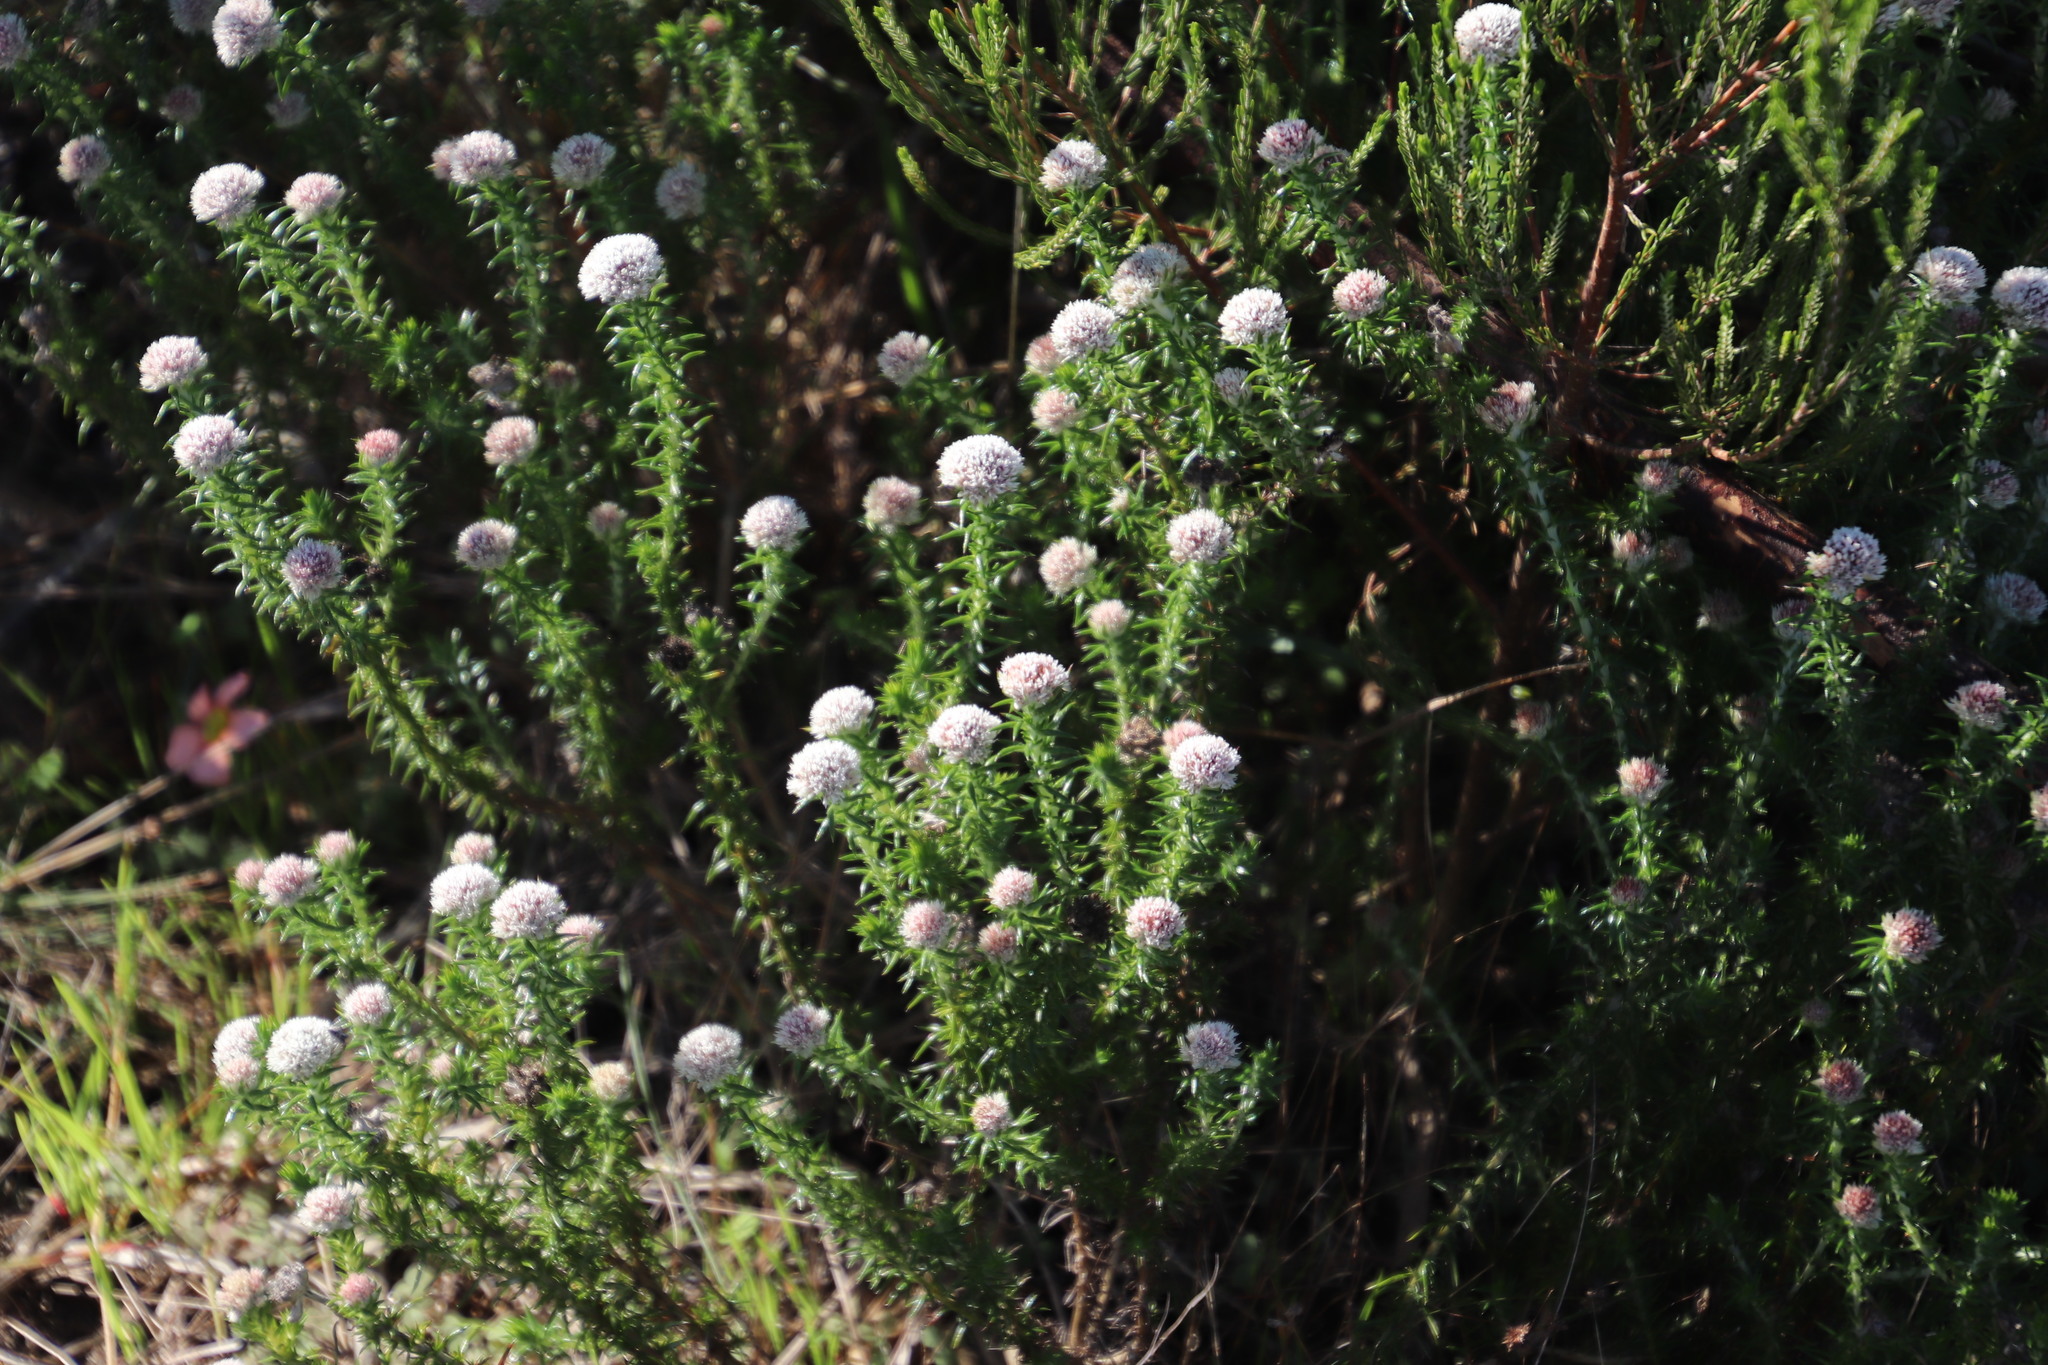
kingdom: Plantae
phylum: Tracheophyta
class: Magnoliopsida
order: Asterales
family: Asteraceae
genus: Metalasia
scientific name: Metalasia pulchella
